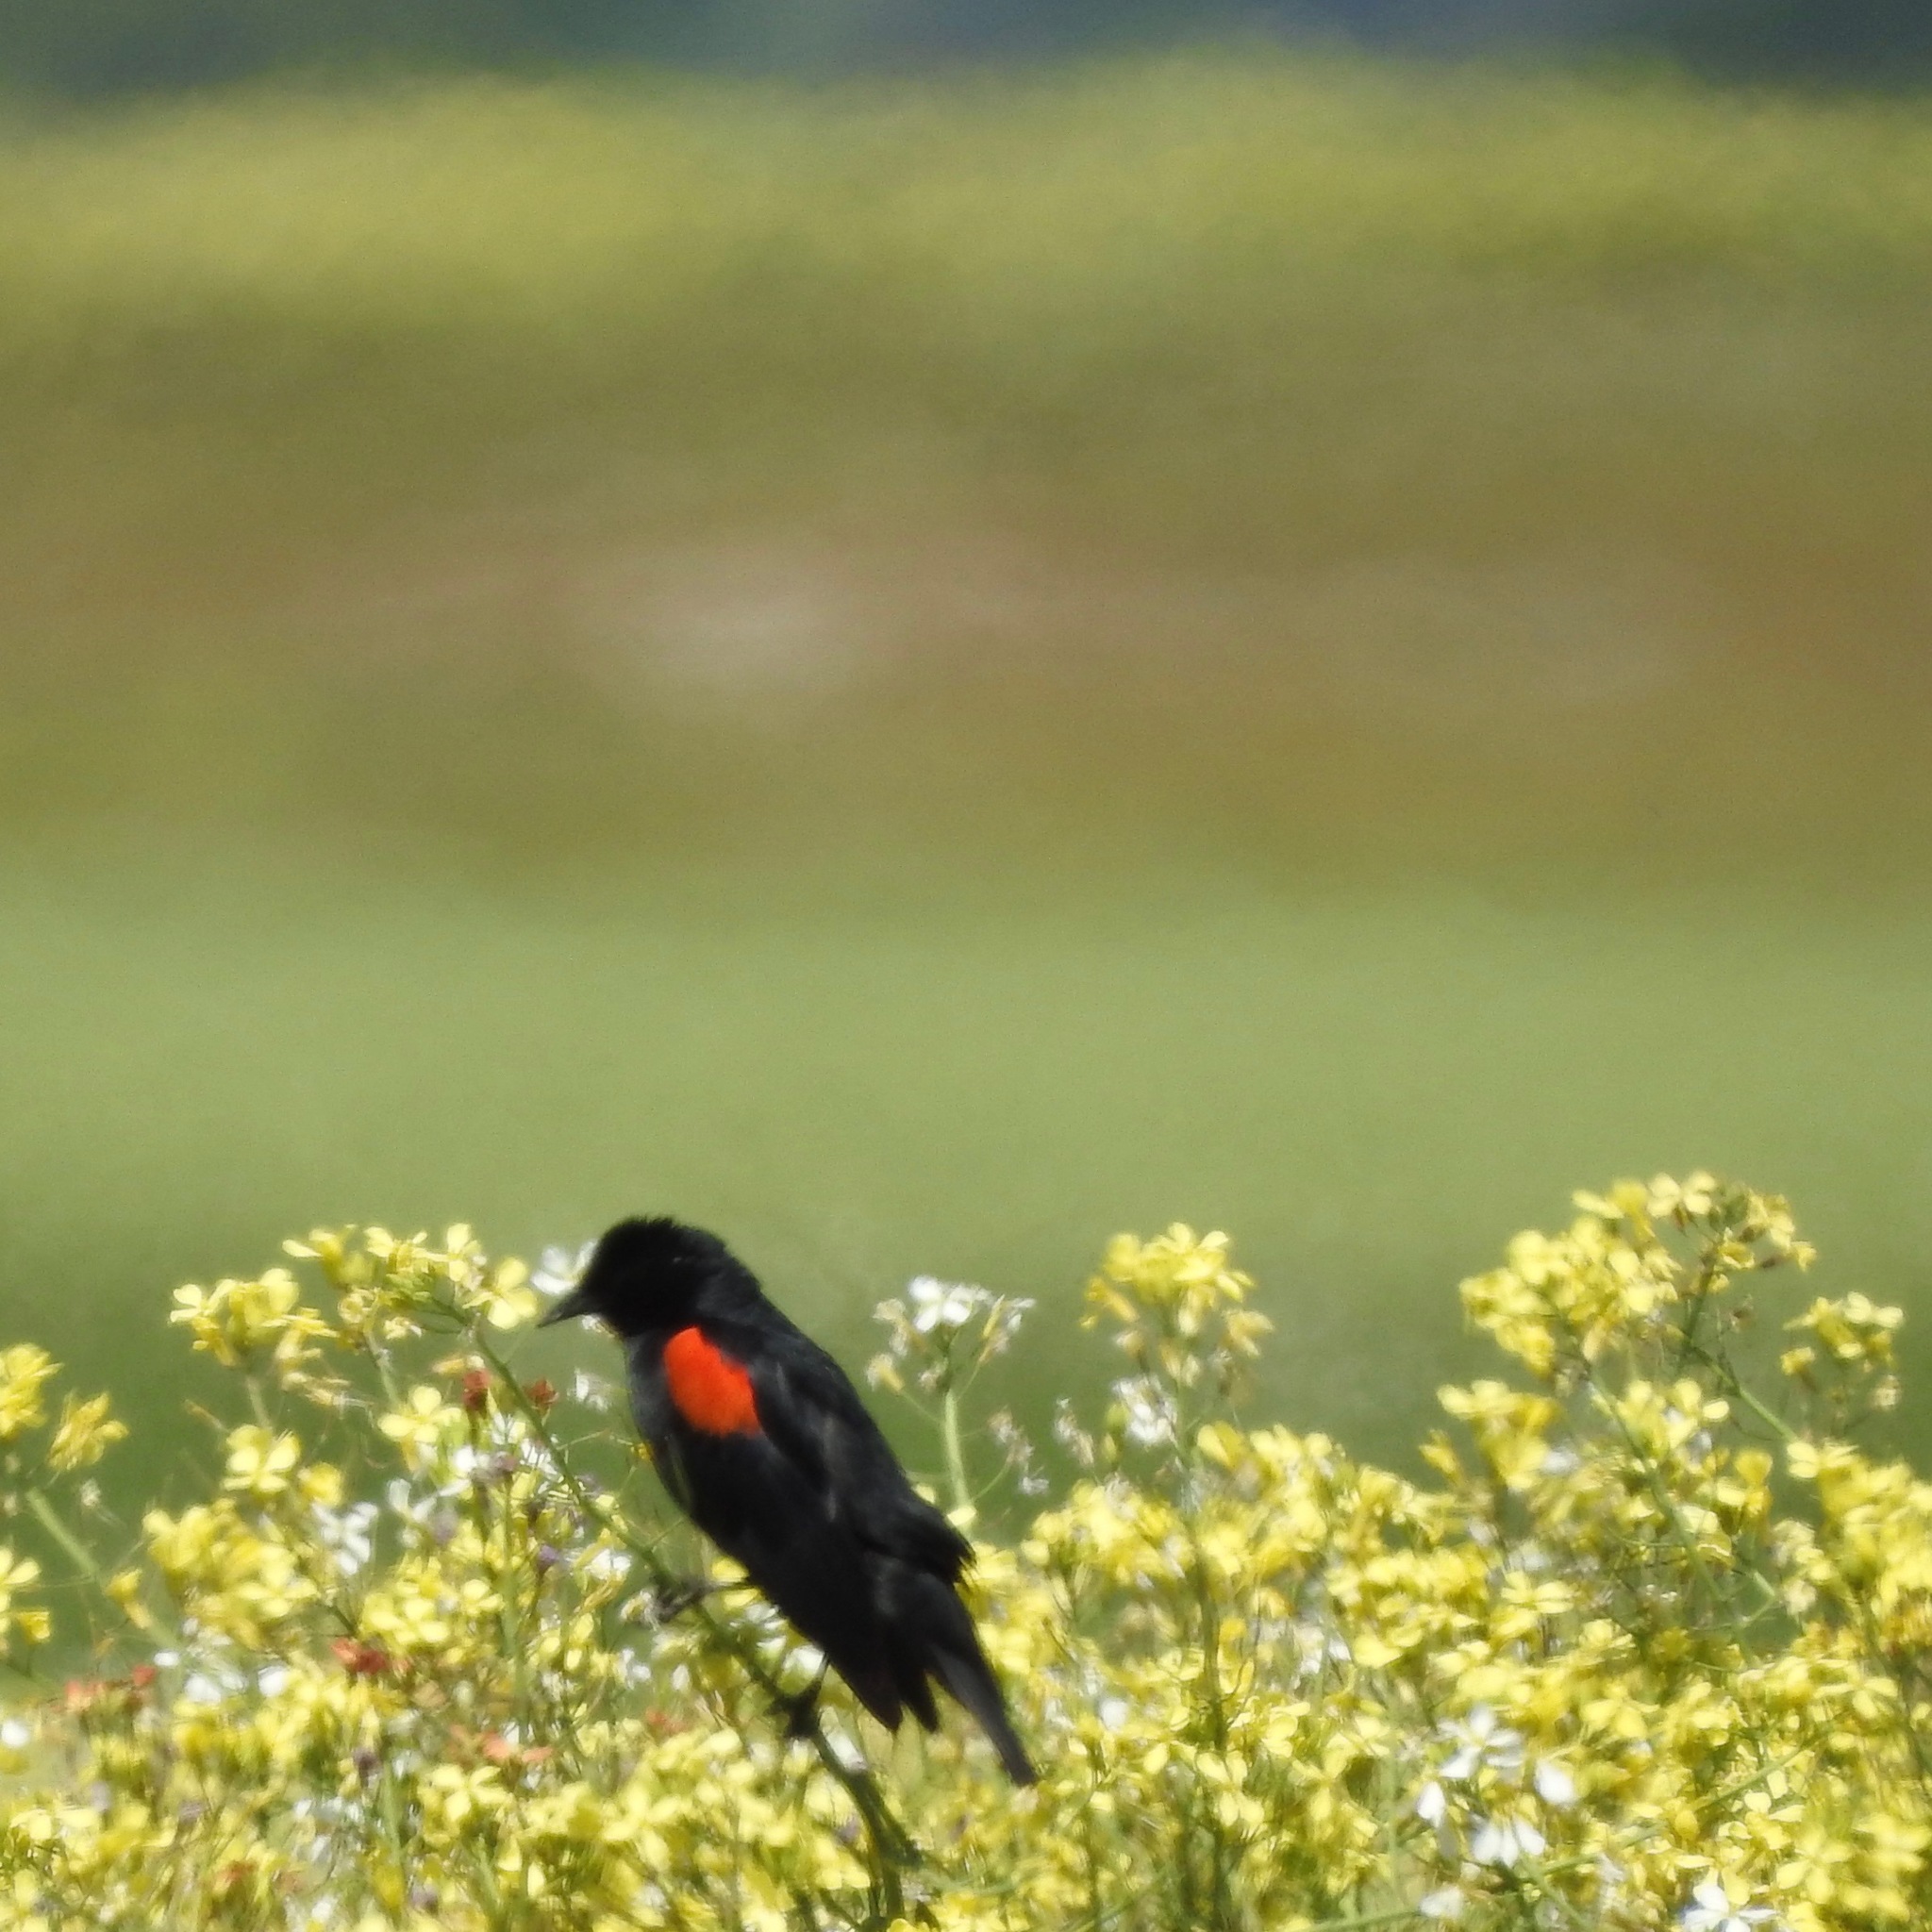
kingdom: Animalia
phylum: Chordata
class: Aves
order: Passeriformes
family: Icteridae
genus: Agelaius
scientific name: Agelaius phoeniceus
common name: Red-winged blackbird
